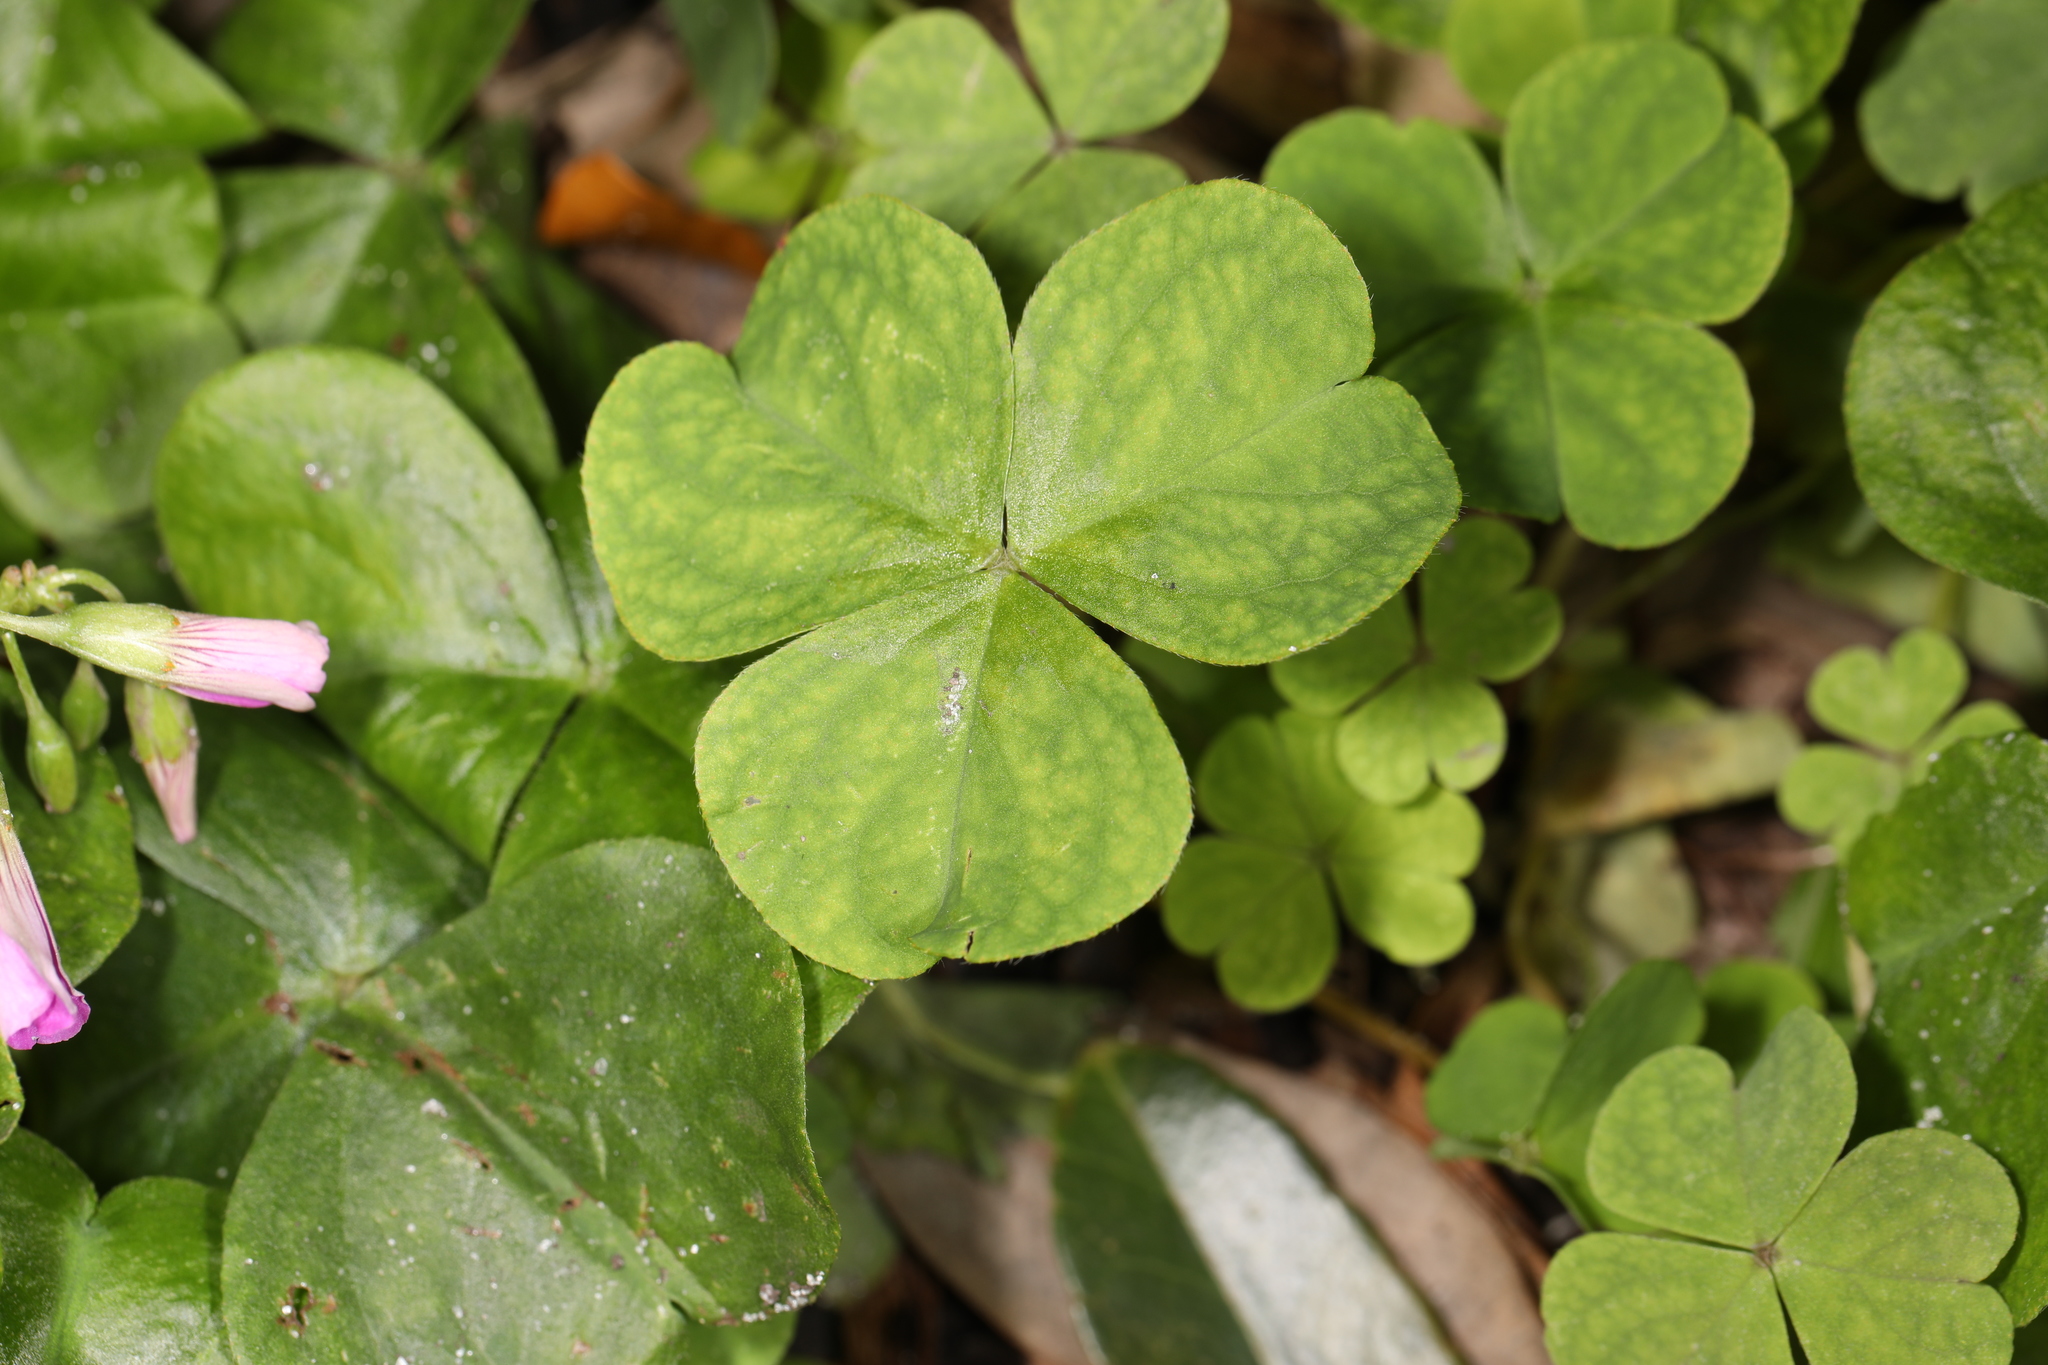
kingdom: Plantae
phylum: Tracheophyta
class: Magnoliopsida
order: Oxalidales
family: Oxalidaceae
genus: Oxalis
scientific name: Oxalis debilis
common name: Large-flowered pink-sorrel
